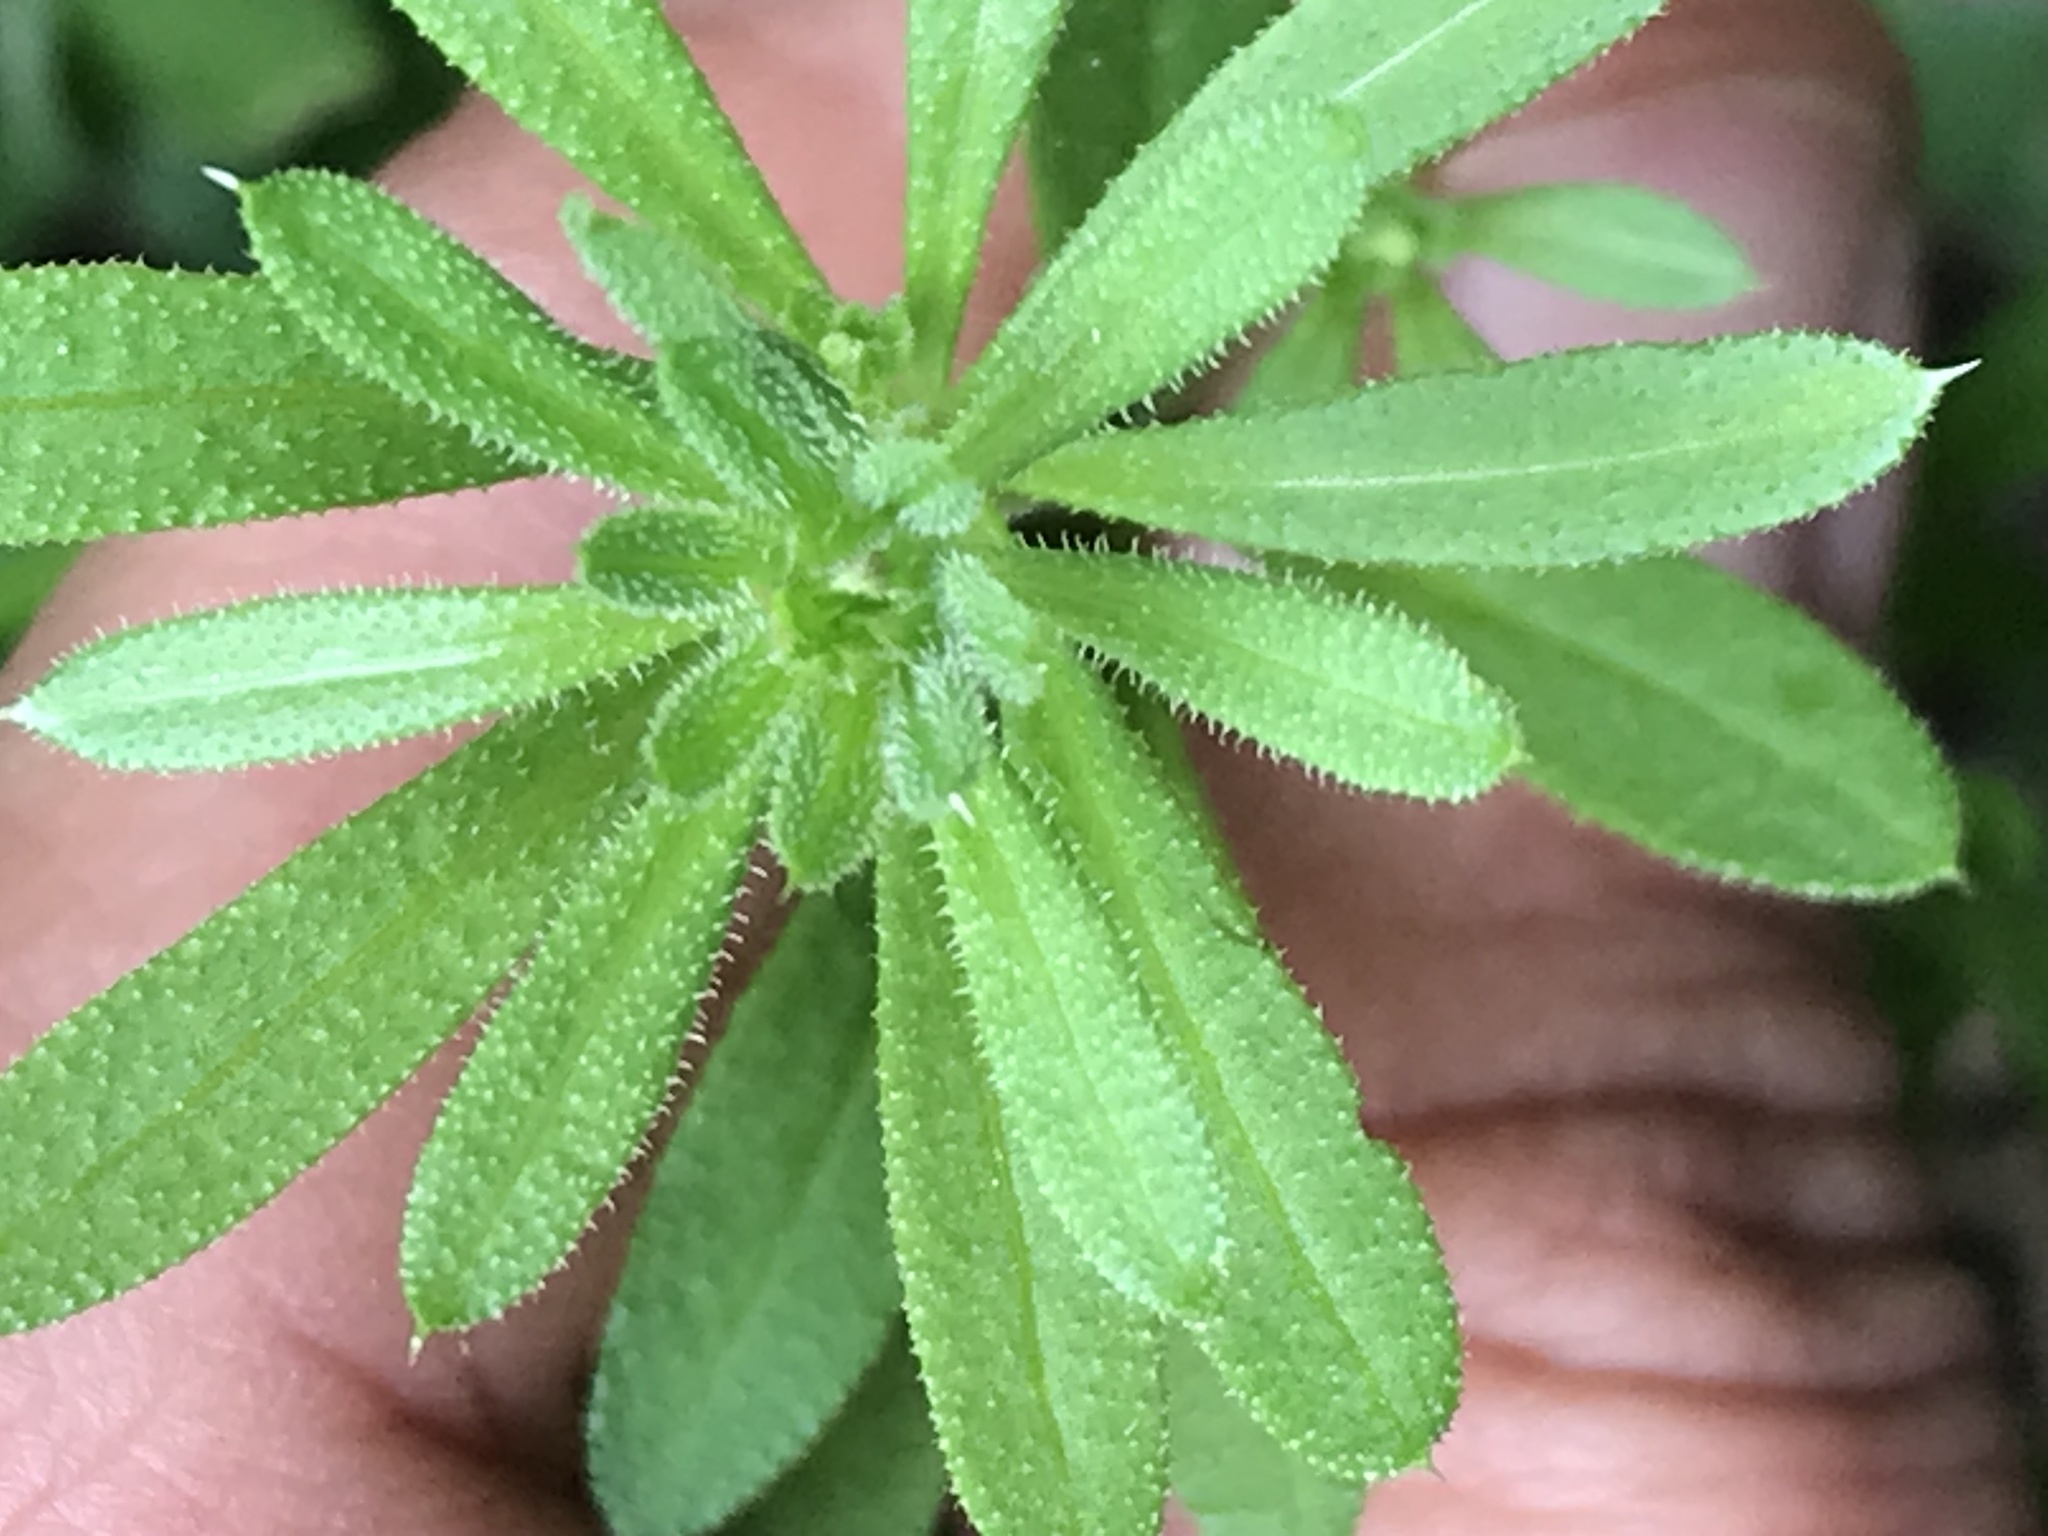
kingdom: Plantae
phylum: Tracheophyta
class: Magnoliopsida
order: Gentianales
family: Rubiaceae
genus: Galium
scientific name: Galium aparine
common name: Cleavers
